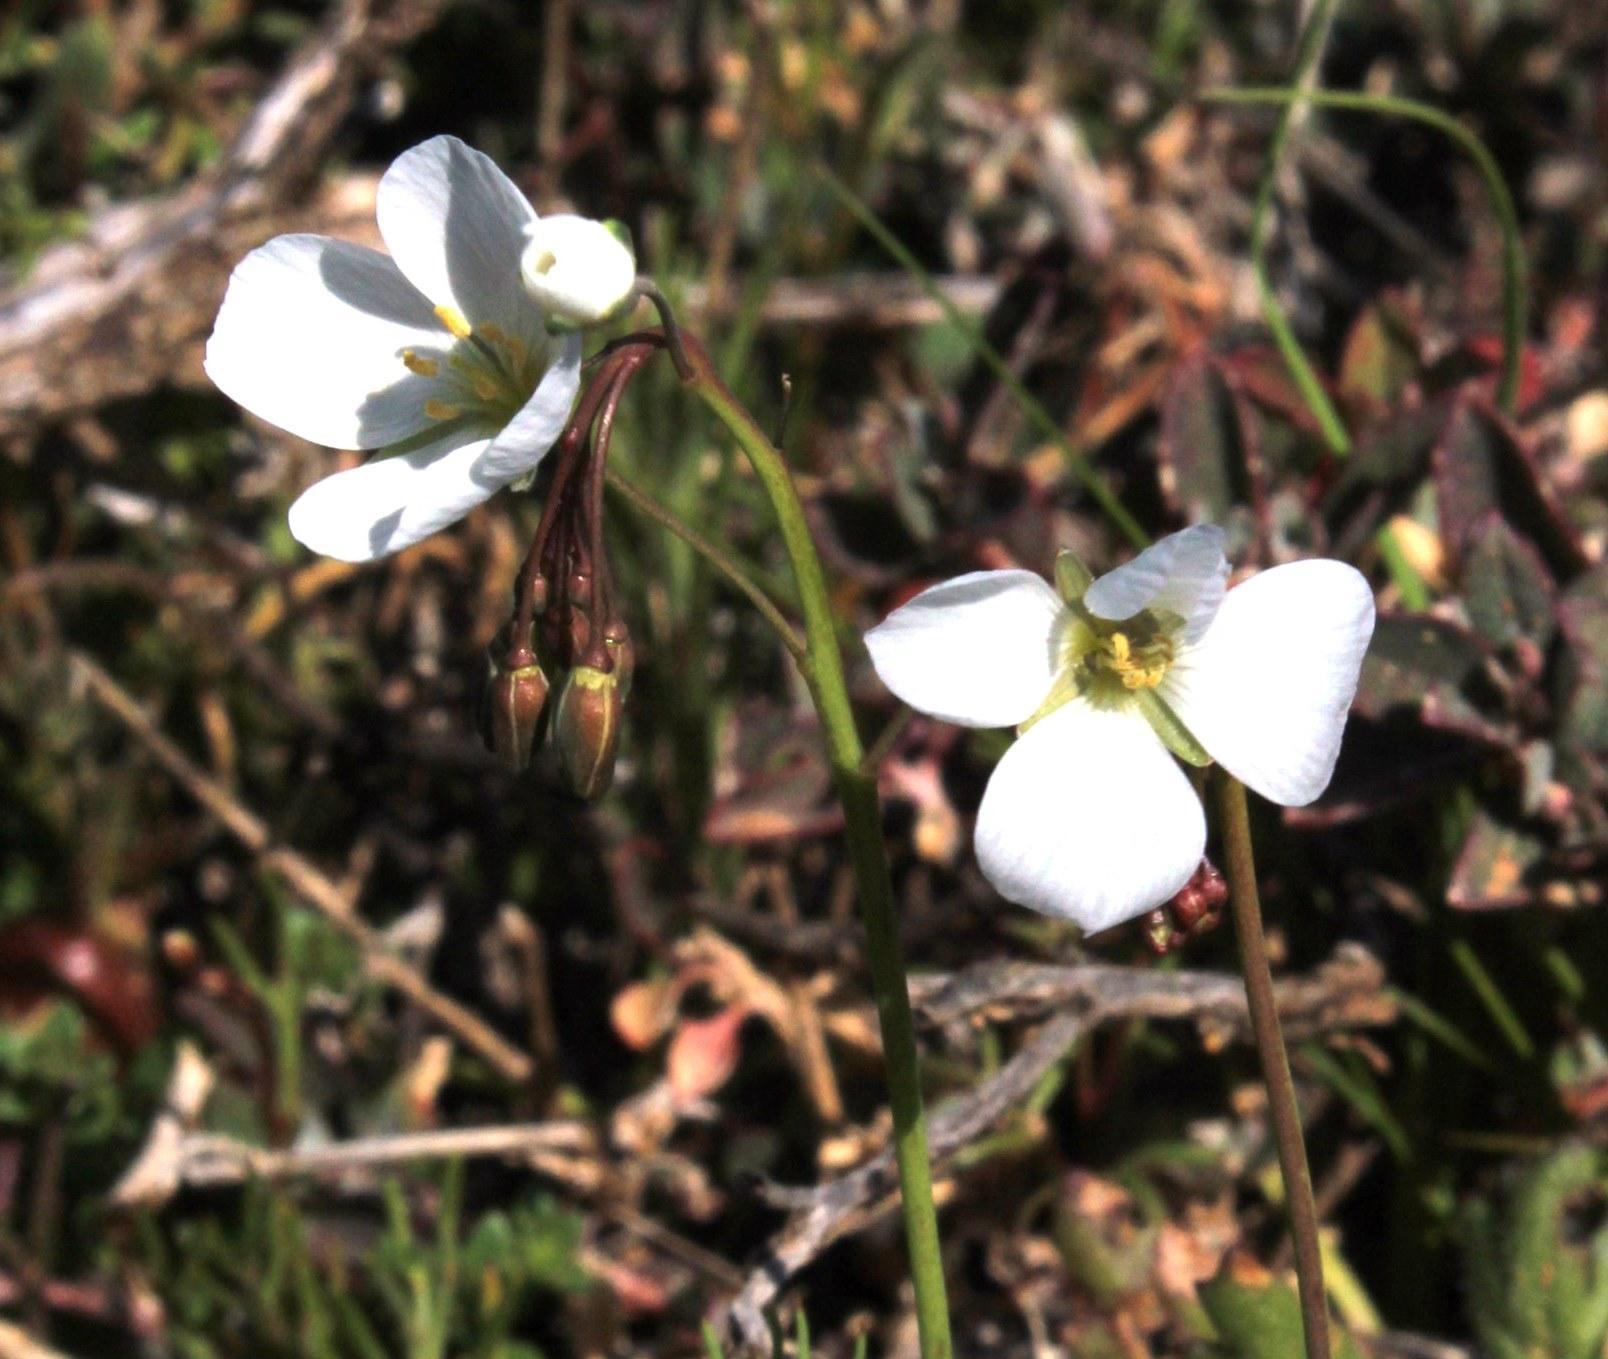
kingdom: Plantae
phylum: Tracheophyta
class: Magnoliopsida
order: Brassicales
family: Brassicaceae
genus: Heliophila
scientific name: Heliophila seselifolia
